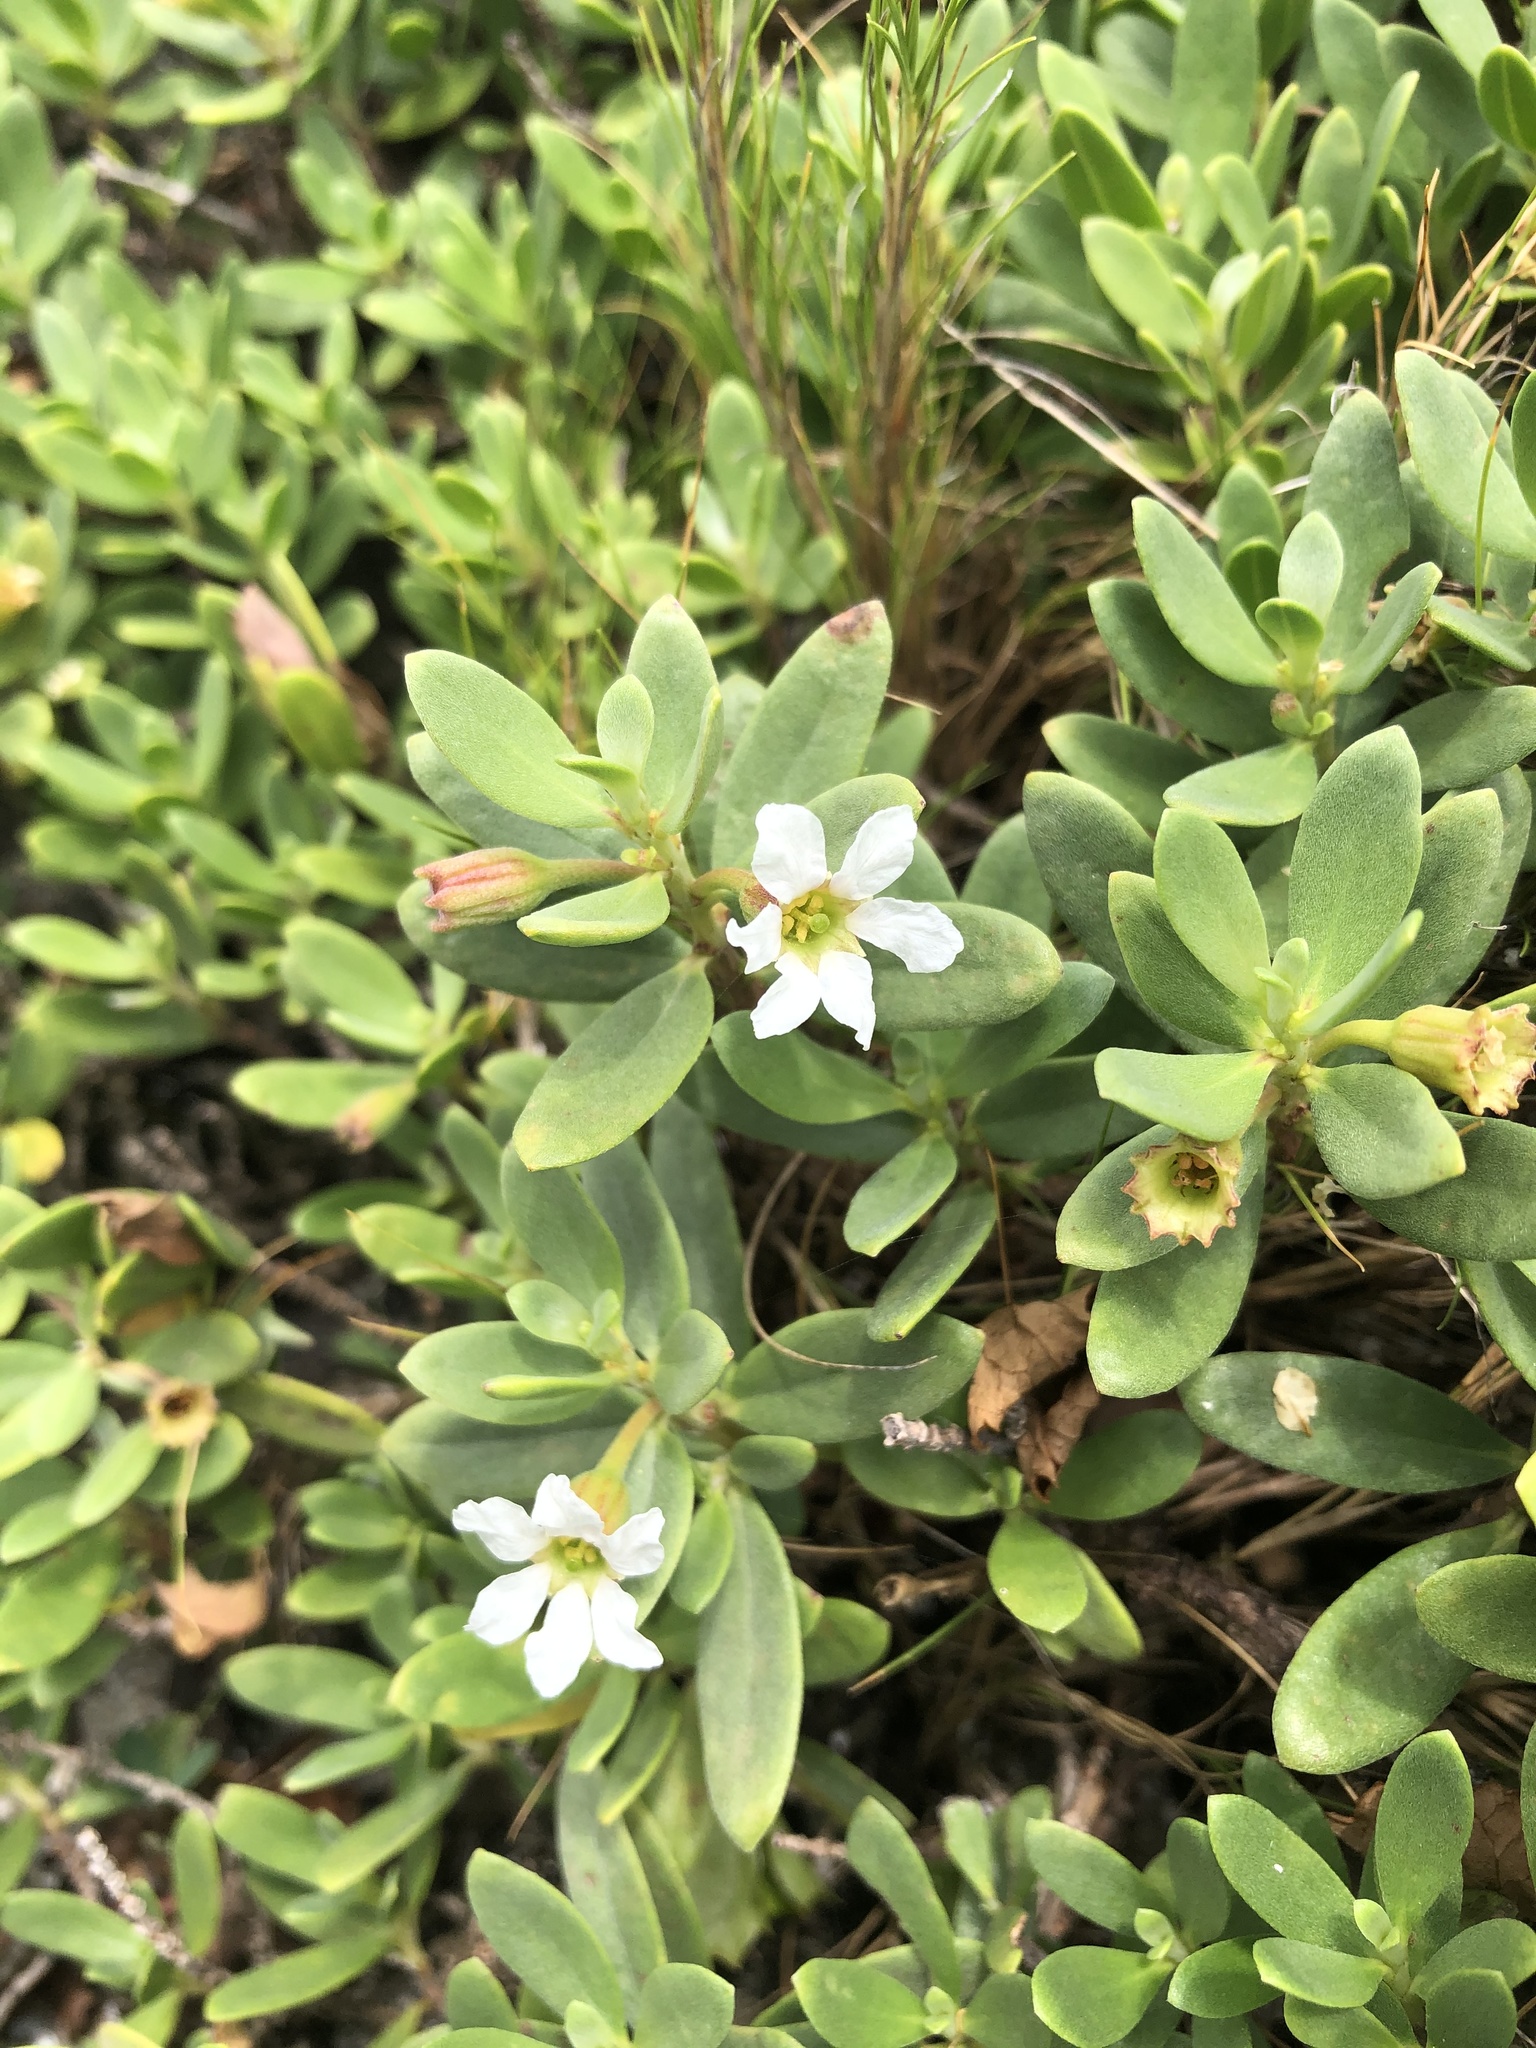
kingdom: Plantae
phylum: Tracheophyta
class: Magnoliopsida
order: Myrtales
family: Lythraceae
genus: Pemphis
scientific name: Pemphis acidula
